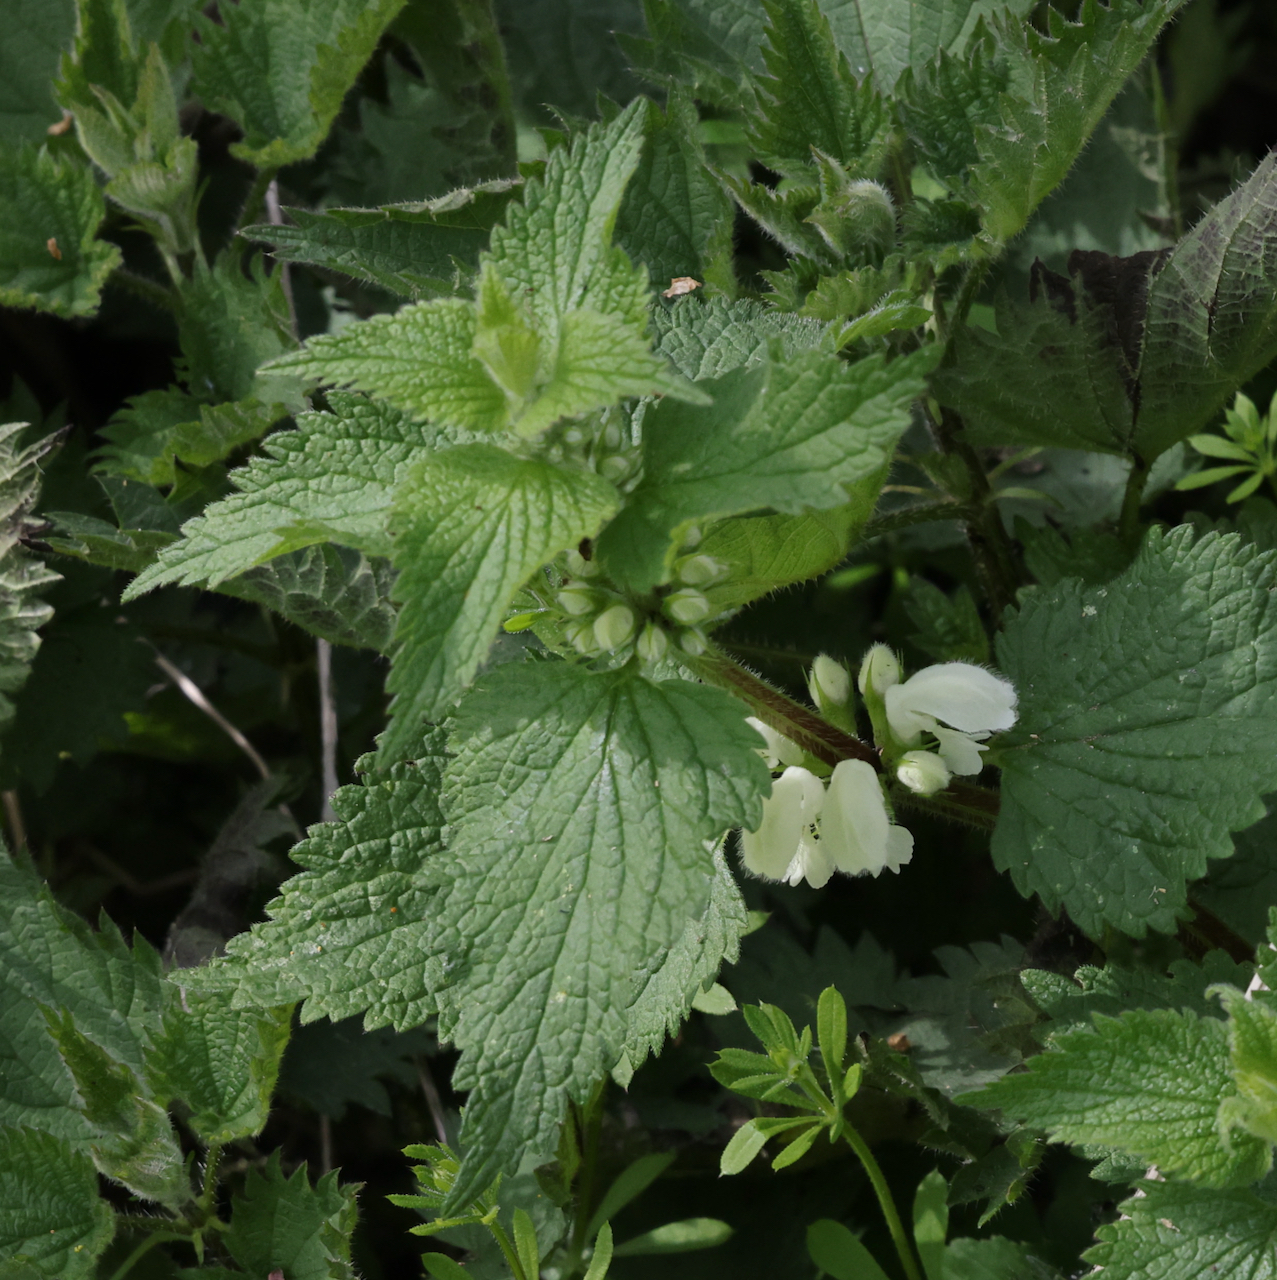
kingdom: Plantae
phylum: Tracheophyta
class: Magnoliopsida
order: Lamiales
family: Lamiaceae
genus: Lamium
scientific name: Lamium album
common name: White dead-nettle
